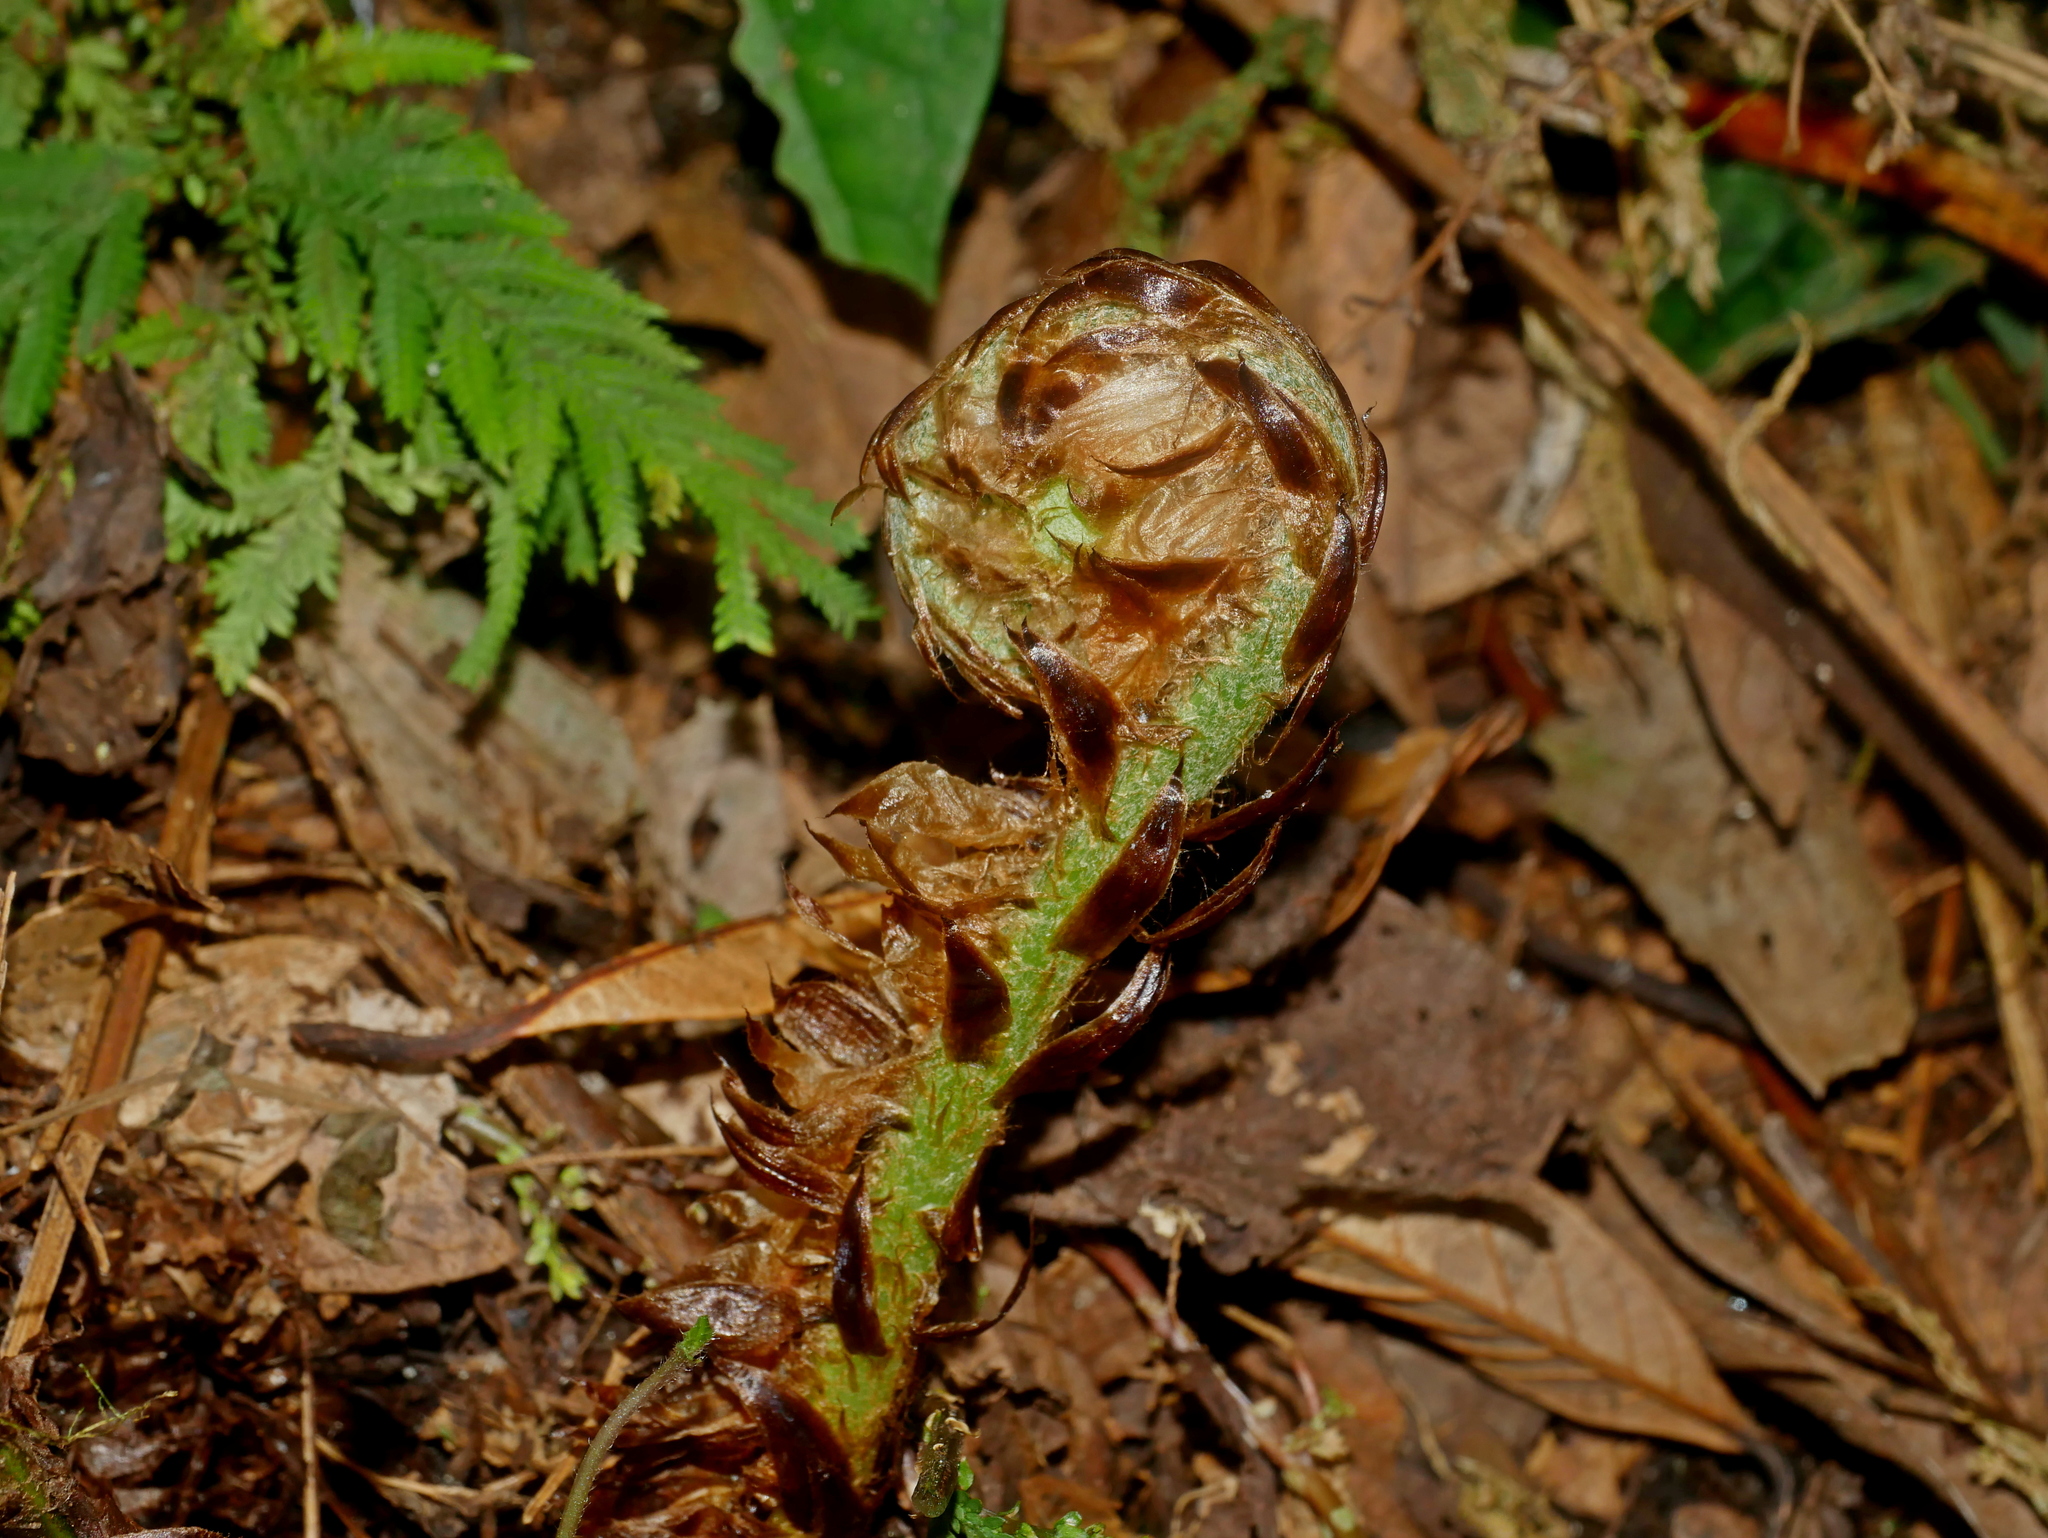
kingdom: Plantae
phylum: Tracheophyta
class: Polypodiopsida
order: Polypodiales
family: Dryopteridaceae
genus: Cyrtomium
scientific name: Cyrtomium taiwanianum
